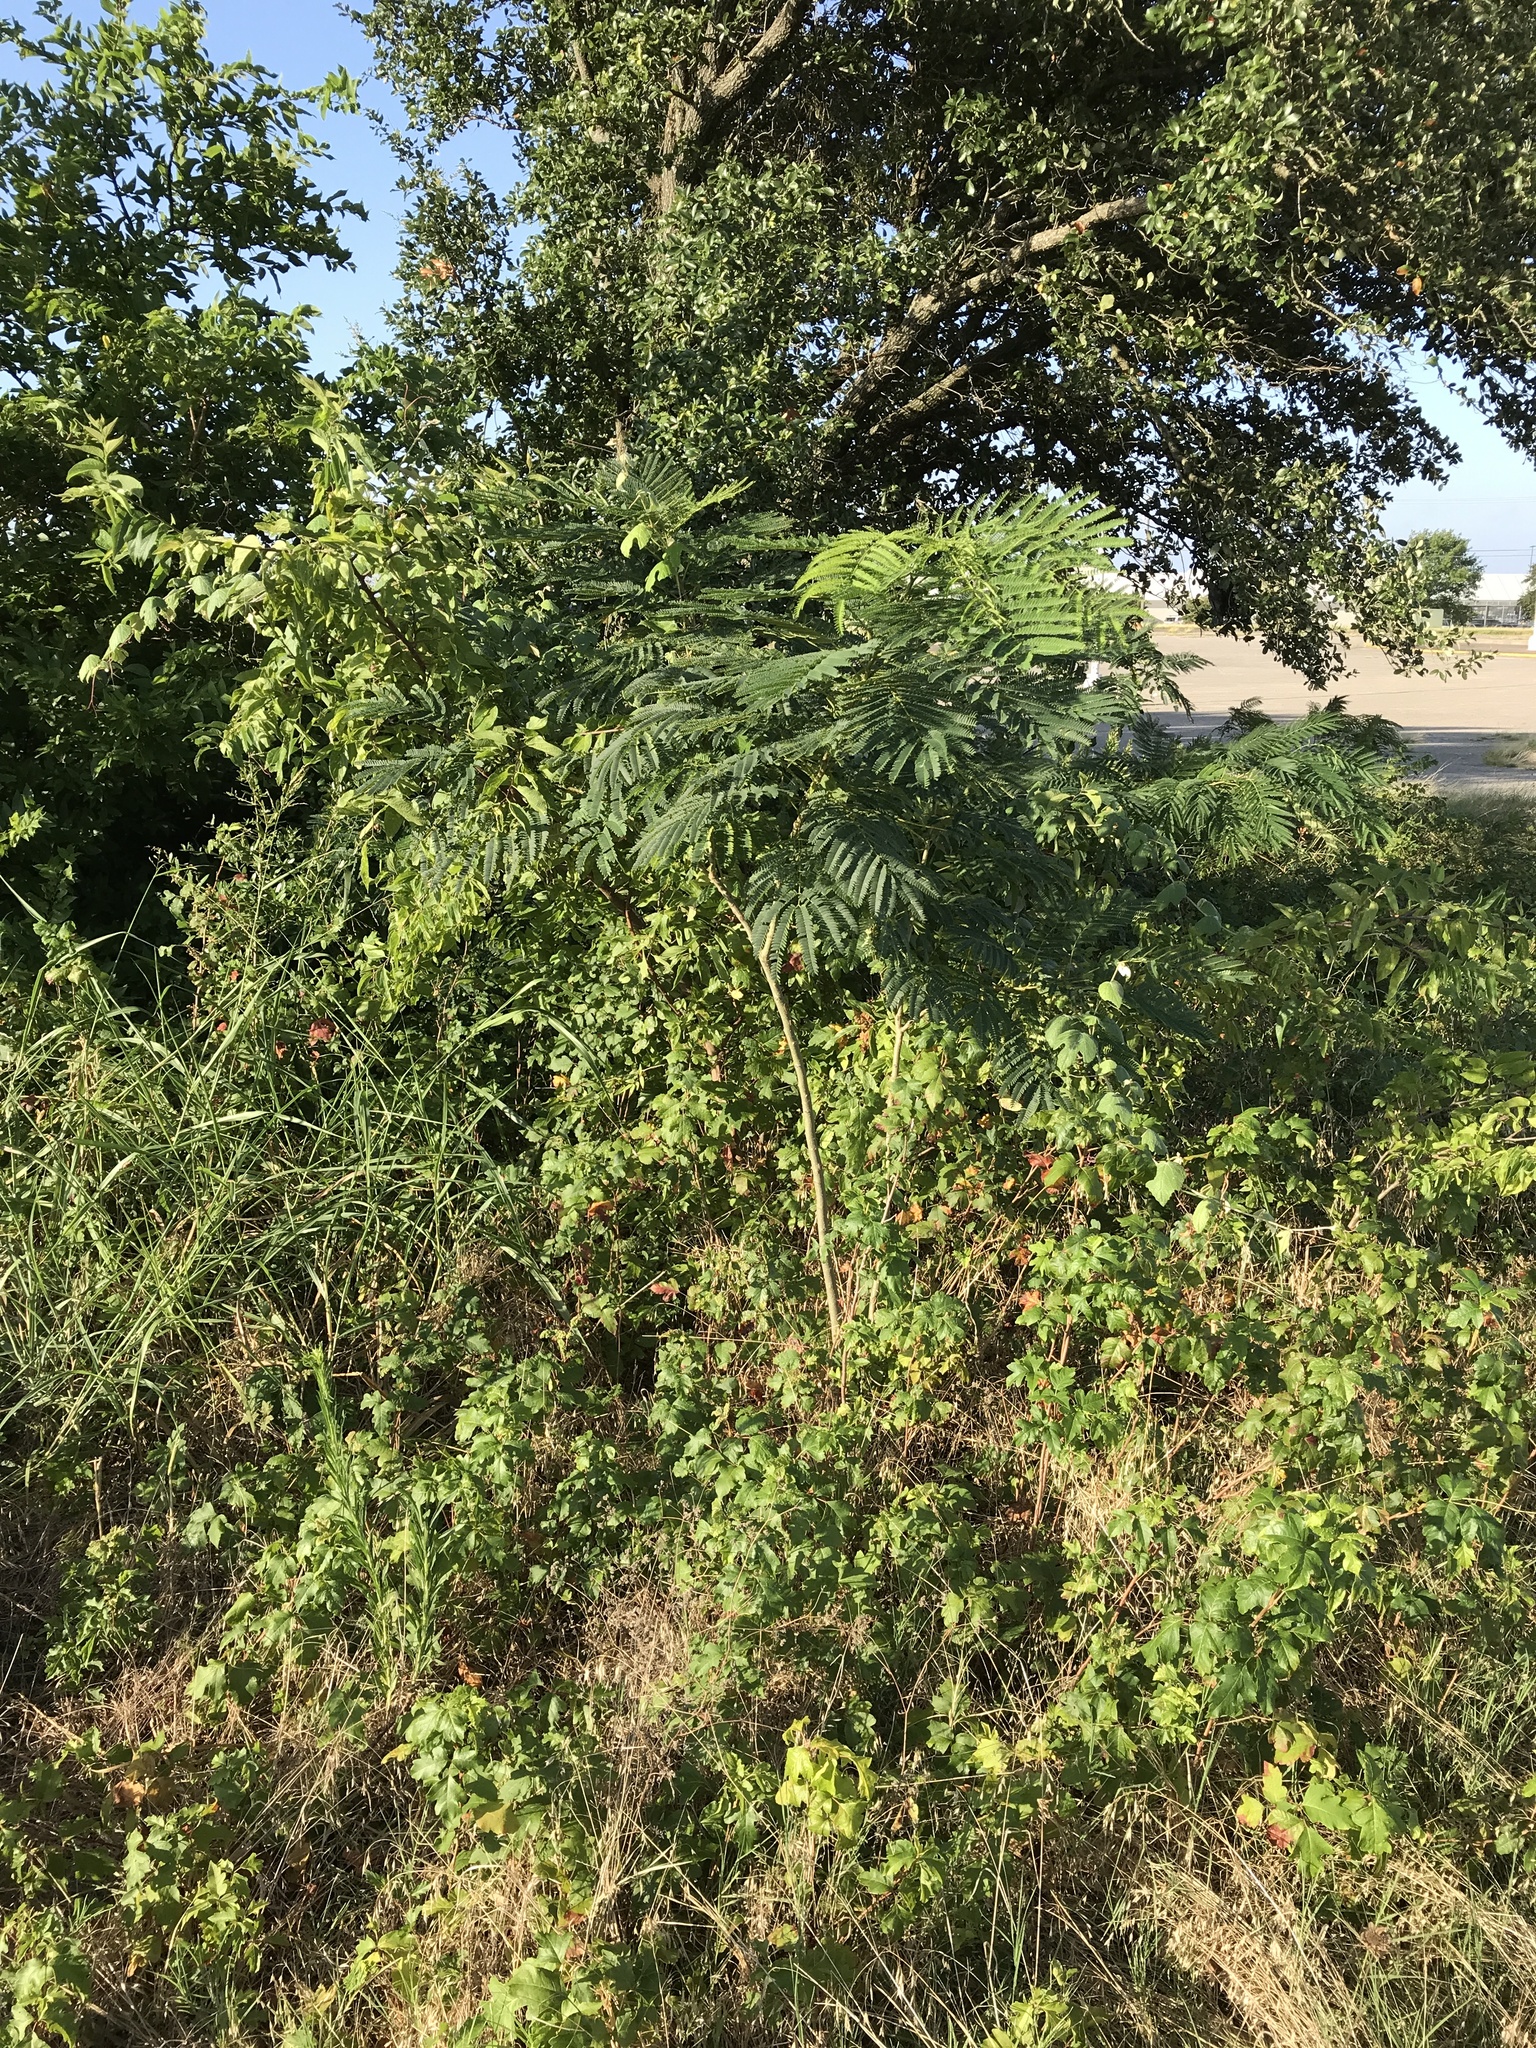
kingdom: Plantae
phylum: Tracheophyta
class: Magnoliopsida
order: Fabales
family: Fabaceae
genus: Albizia
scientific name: Albizia julibrissin
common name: Silktree
